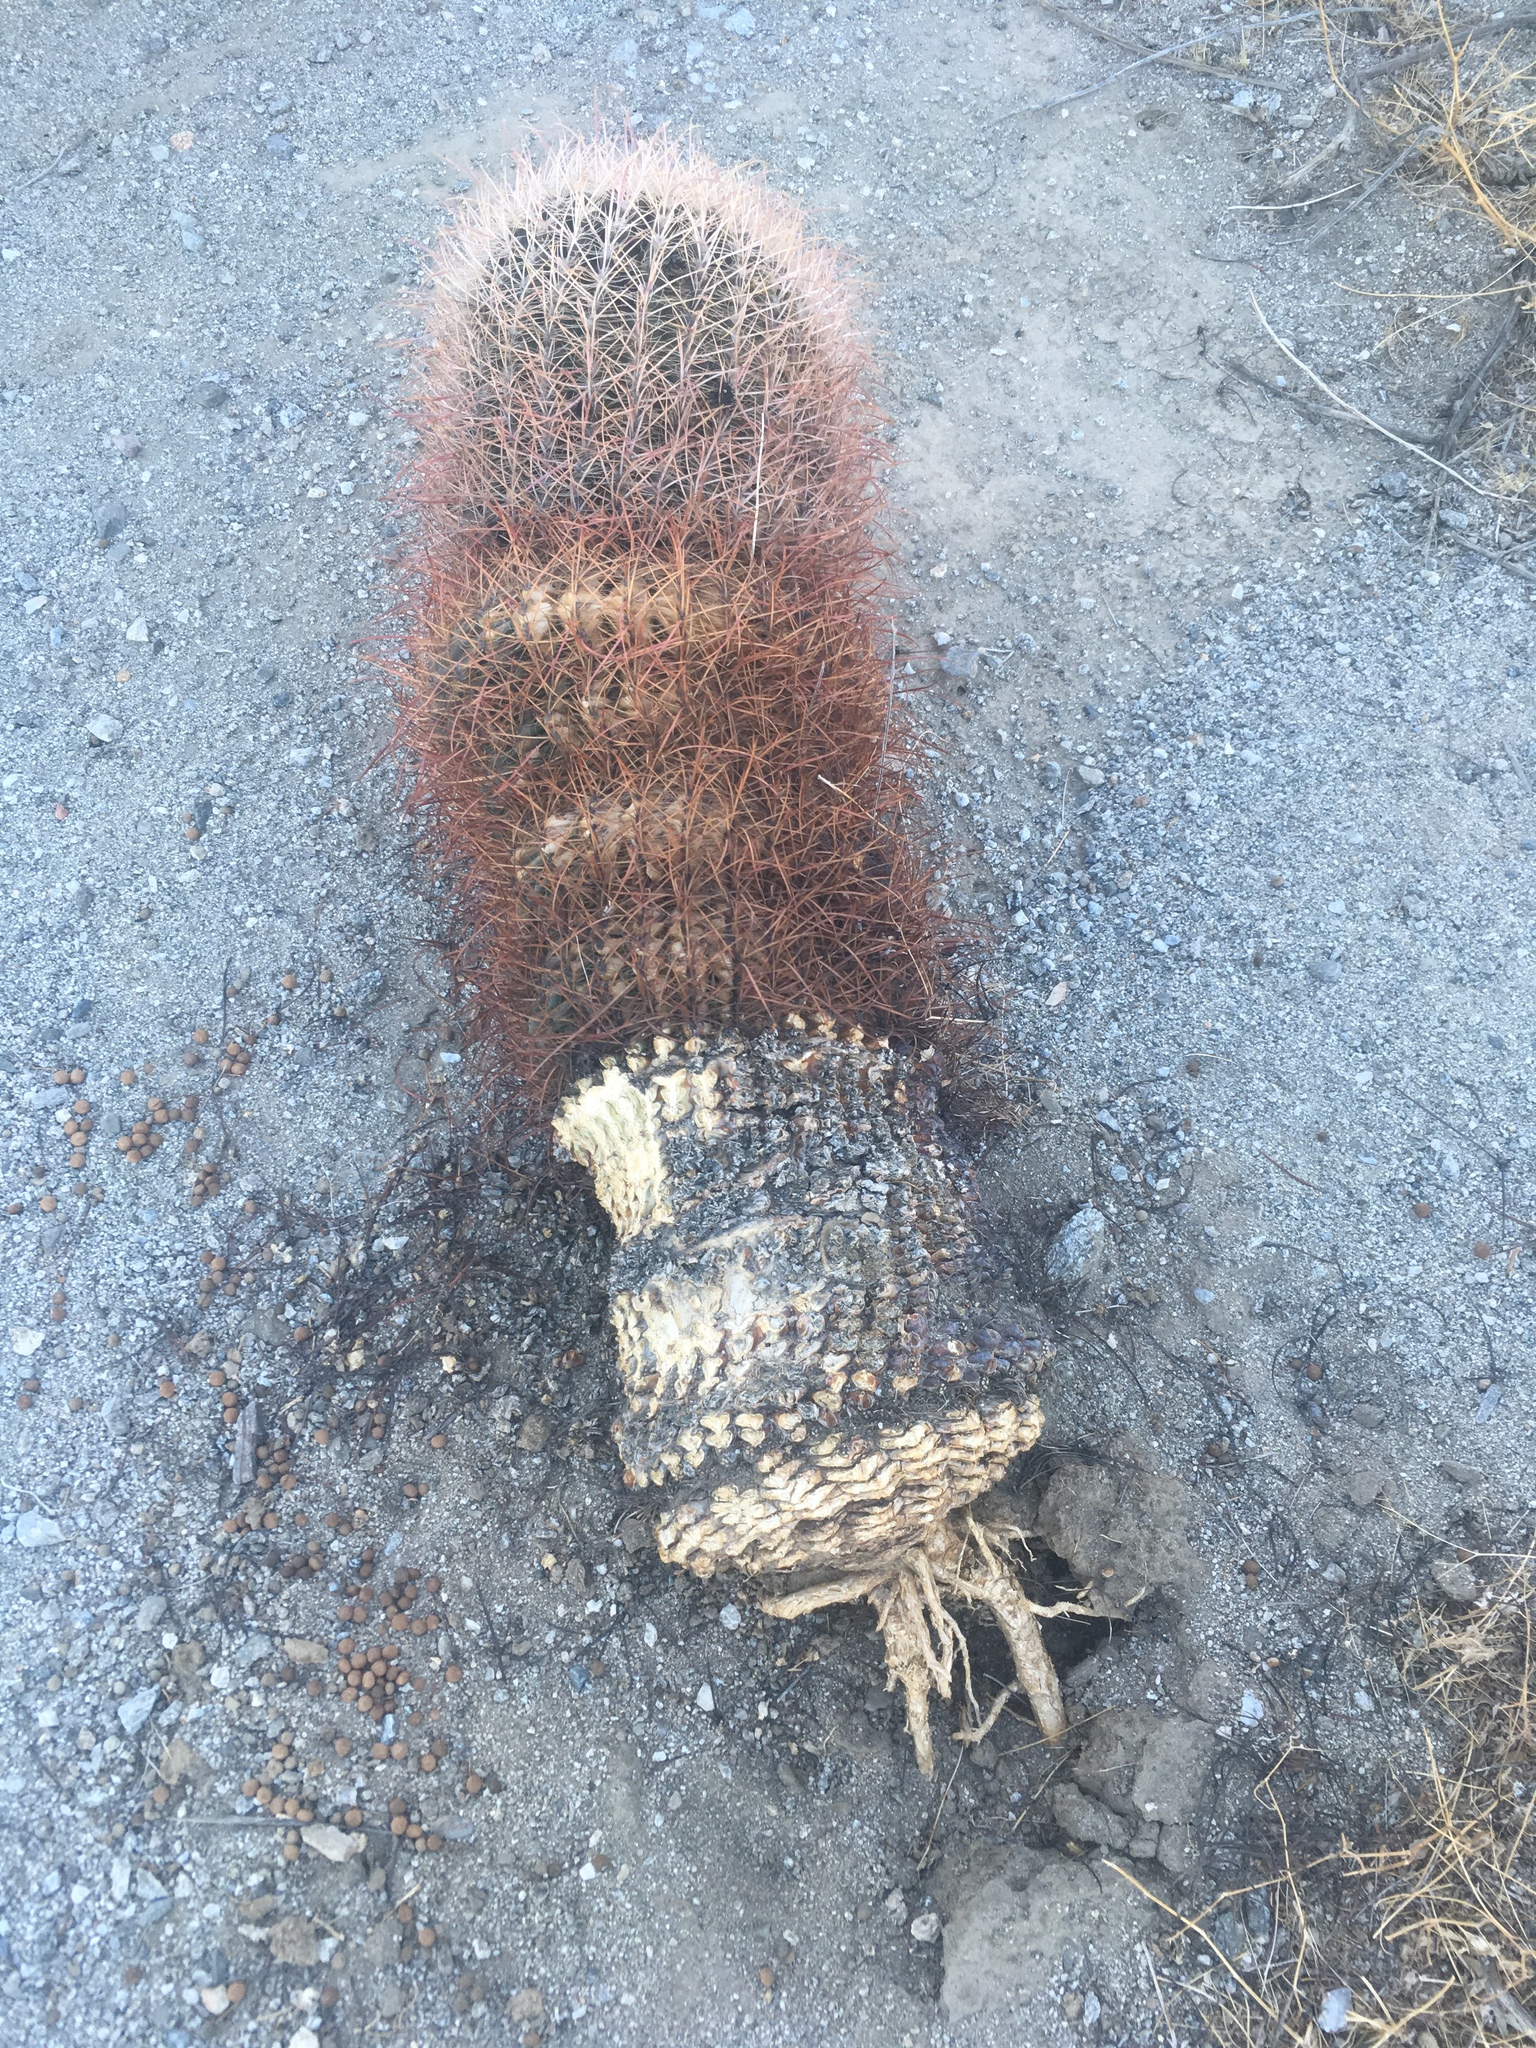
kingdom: Plantae
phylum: Tracheophyta
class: Magnoliopsida
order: Caryophyllales
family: Cactaceae
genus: Ferocactus
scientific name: Ferocactus cylindraceus
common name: California barrel cactus
